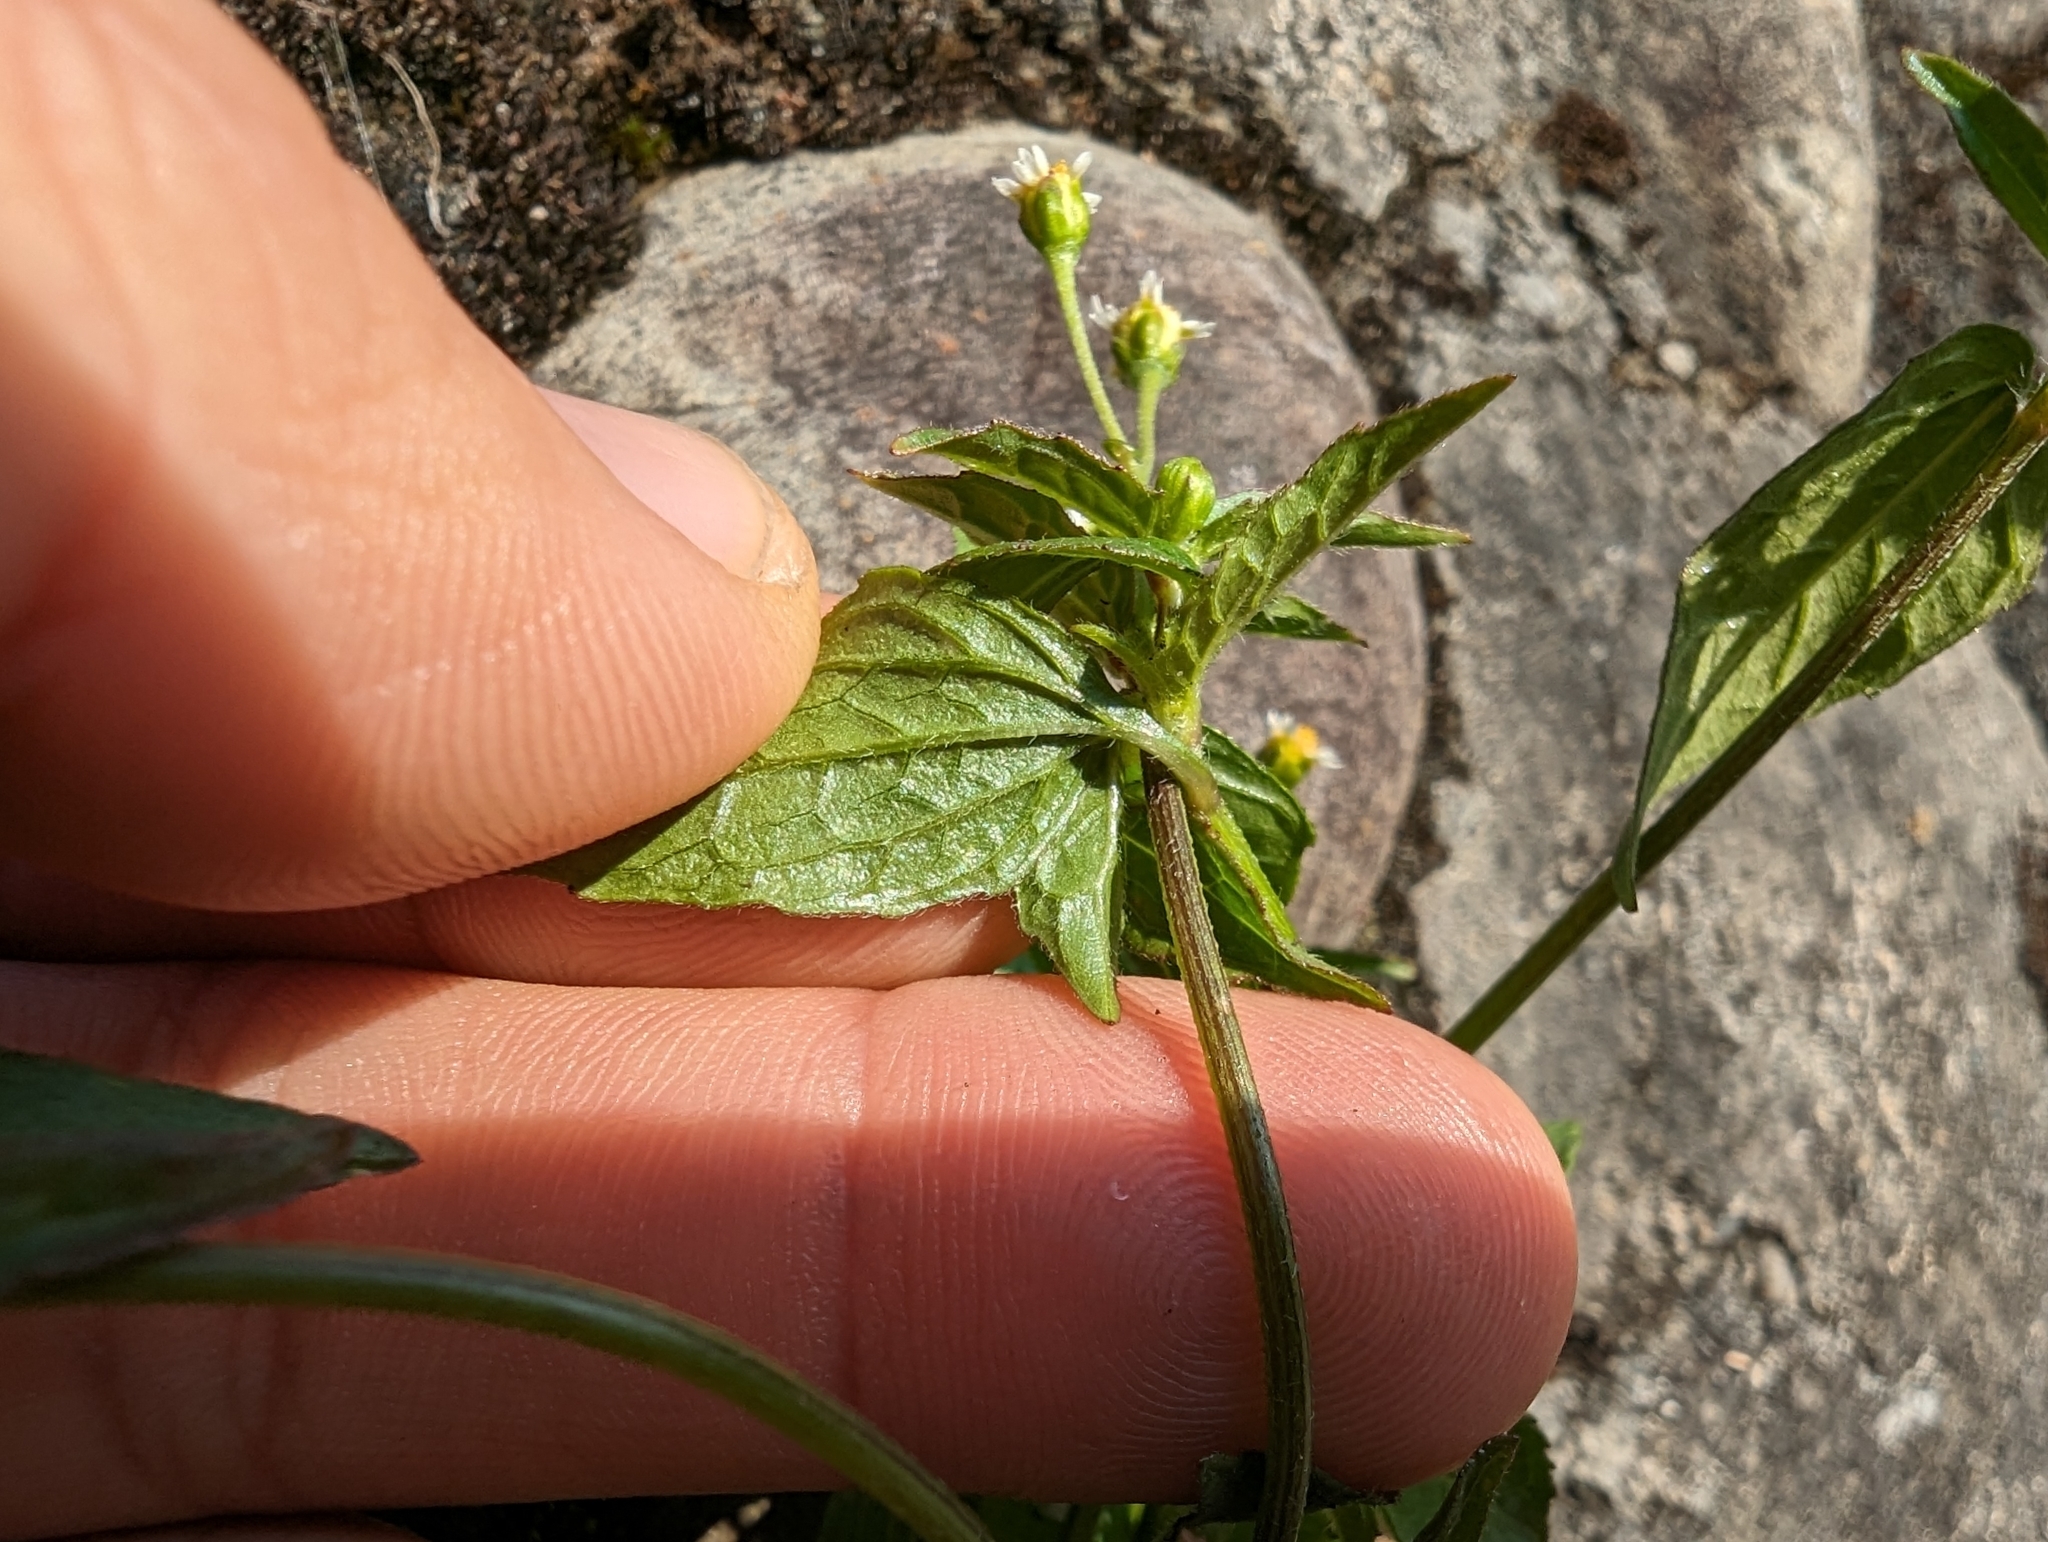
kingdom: Plantae
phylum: Tracheophyta
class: Magnoliopsida
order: Asterales
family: Asteraceae
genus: Galinsoga
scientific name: Galinsoga parviflora
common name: Gallant soldier
